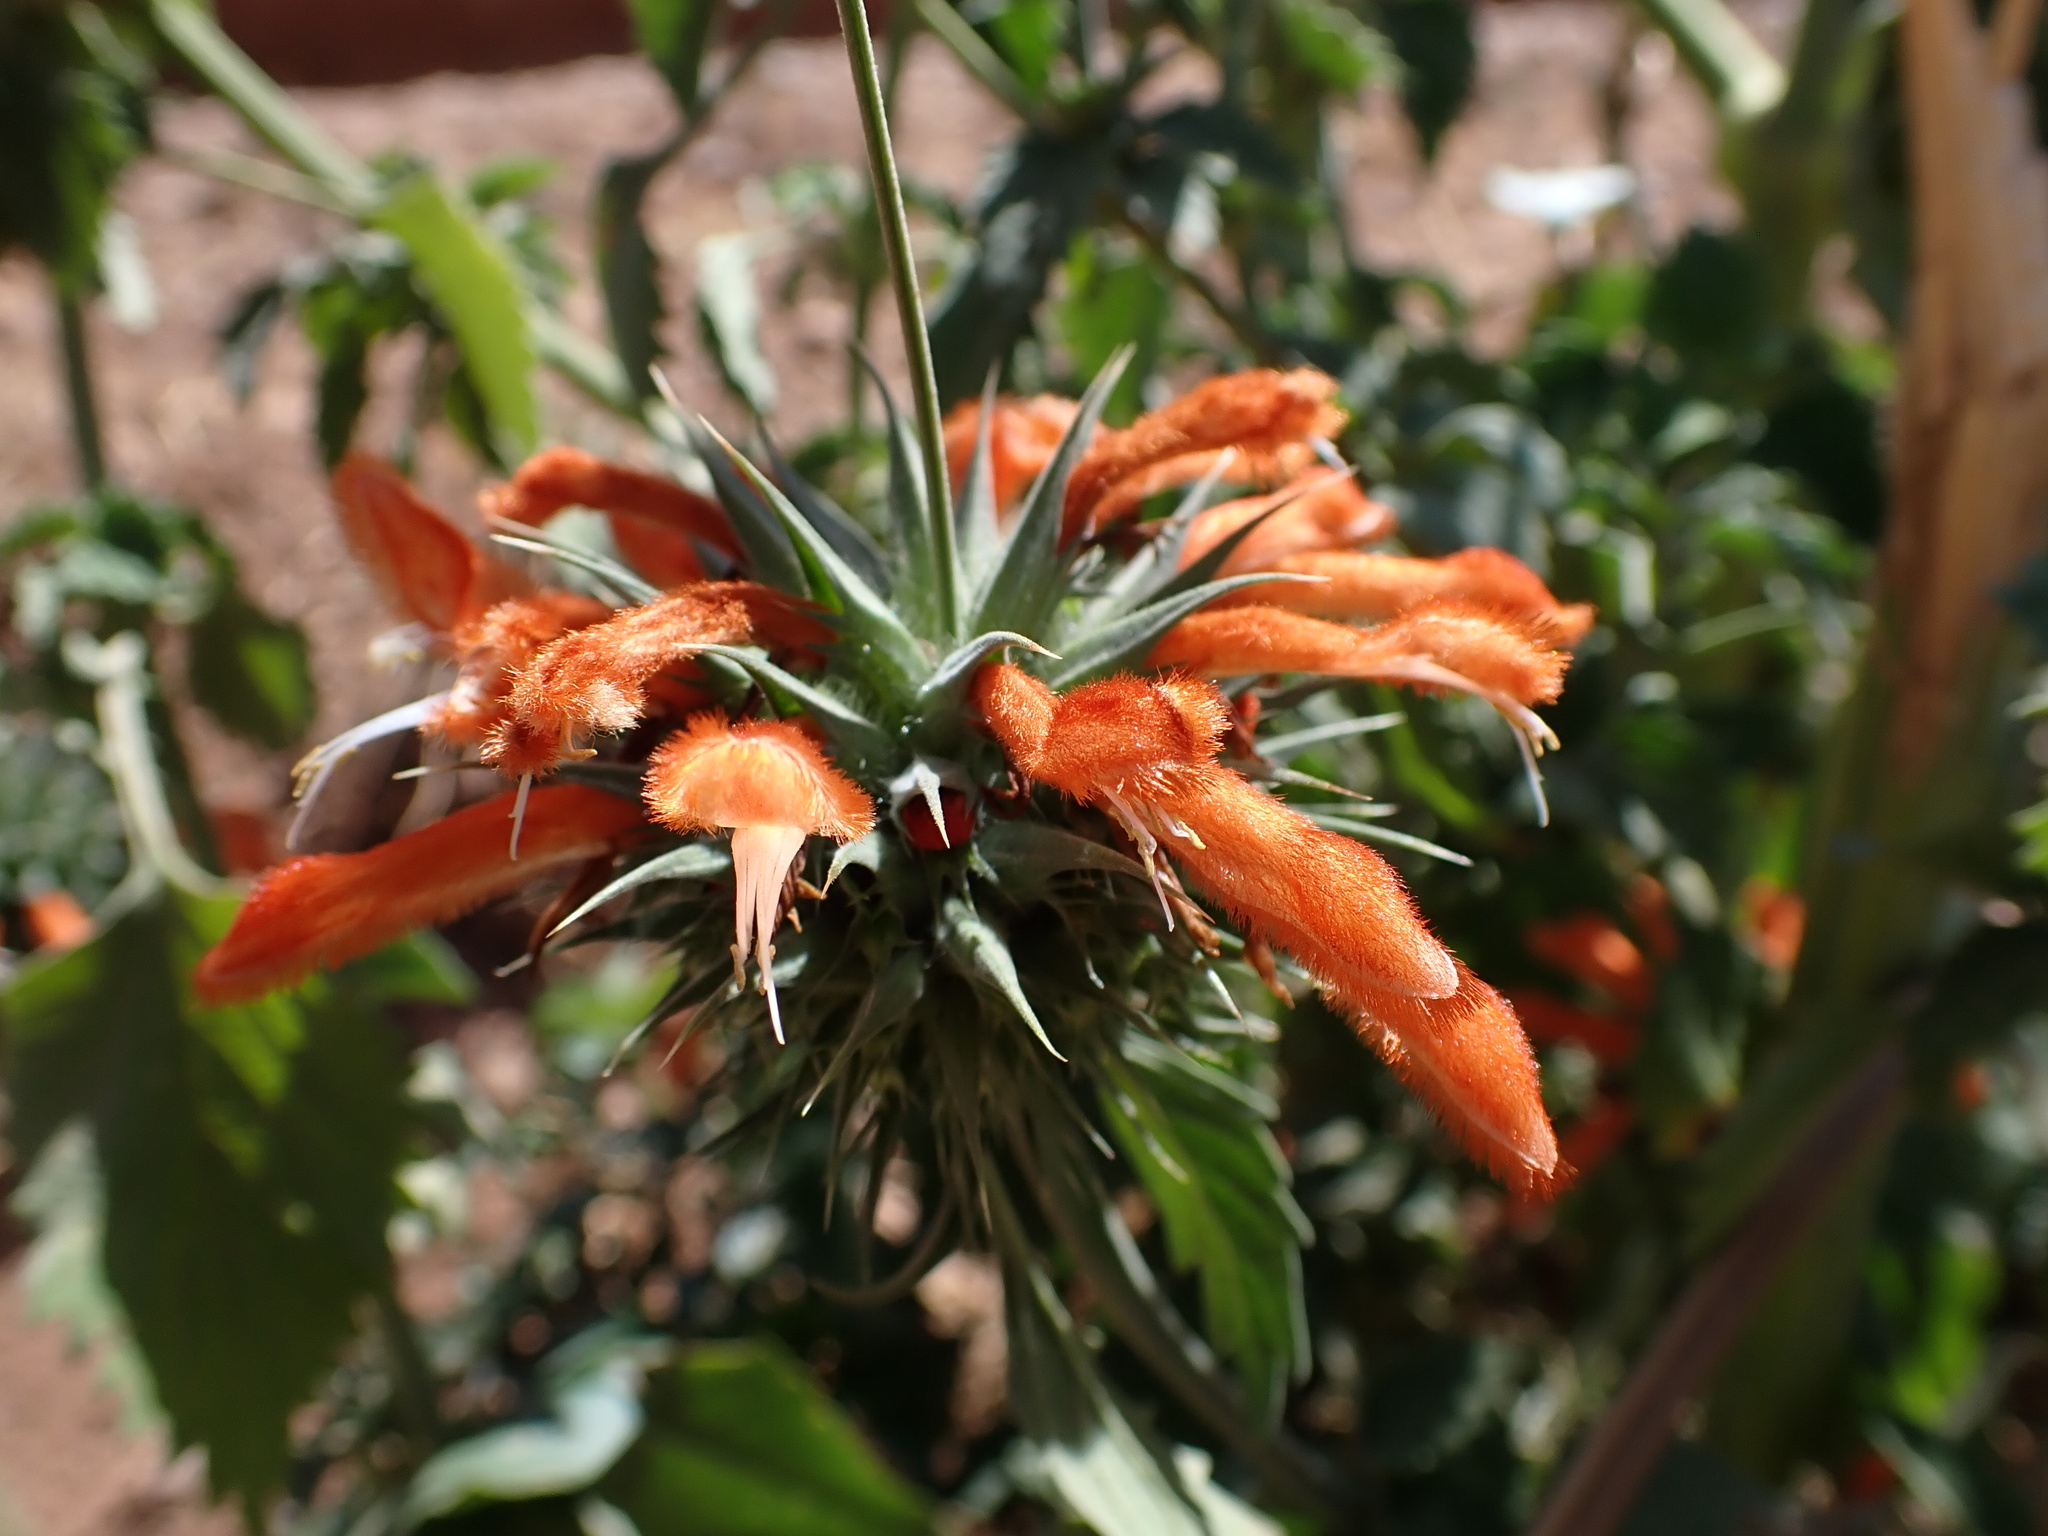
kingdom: Plantae
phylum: Tracheophyta
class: Magnoliopsida
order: Lamiales
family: Lamiaceae
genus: Leonotis
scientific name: Leonotis nepetifolia
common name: Christmas candlestick
